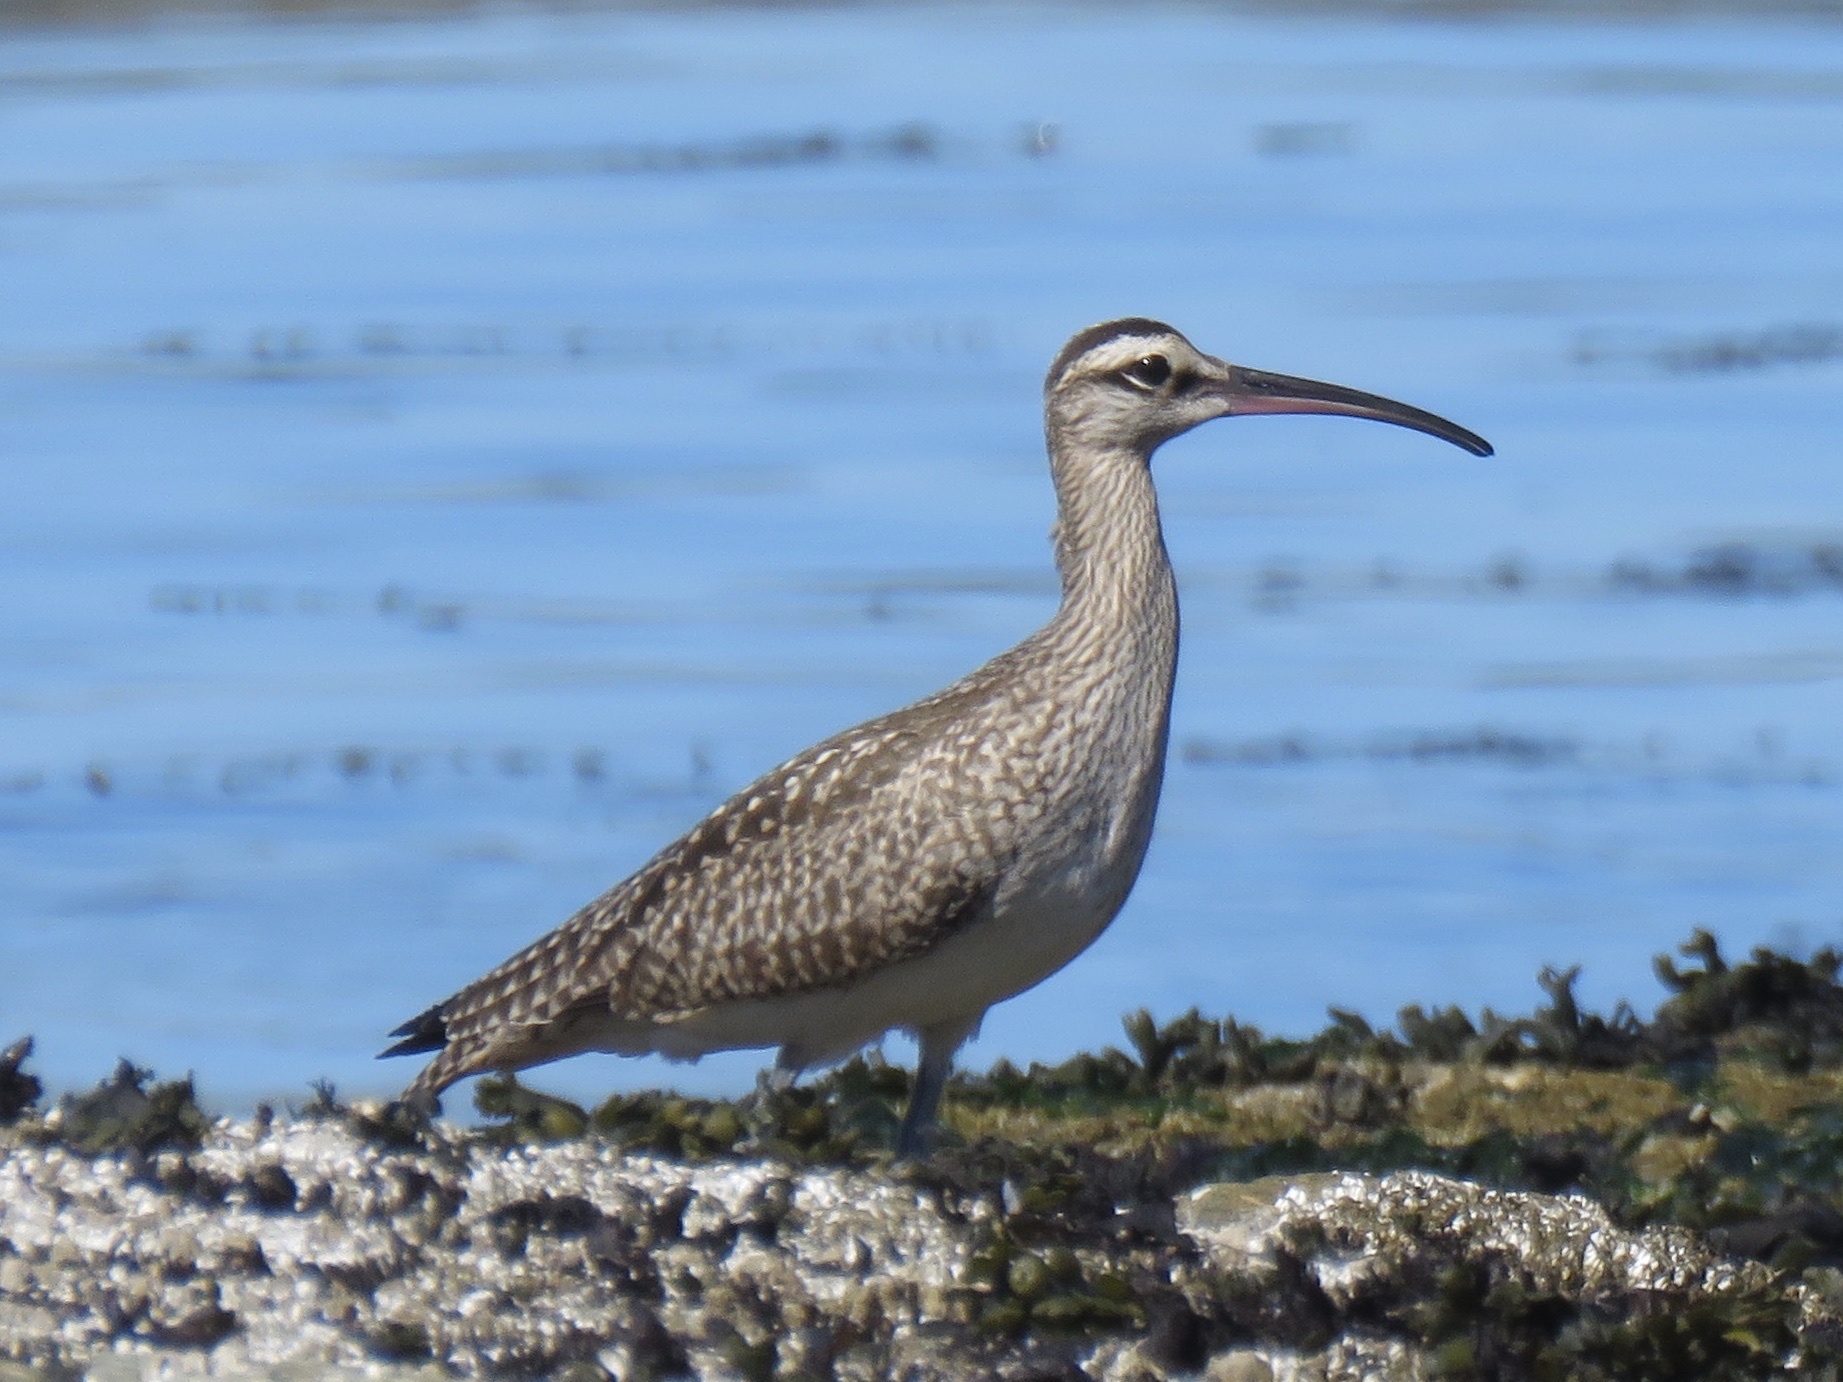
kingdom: Animalia
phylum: Chordata
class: Aves
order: Charadriiformes
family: Scolopacidae
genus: Numenius
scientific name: Numenius phaeopus
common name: Whimbrel
